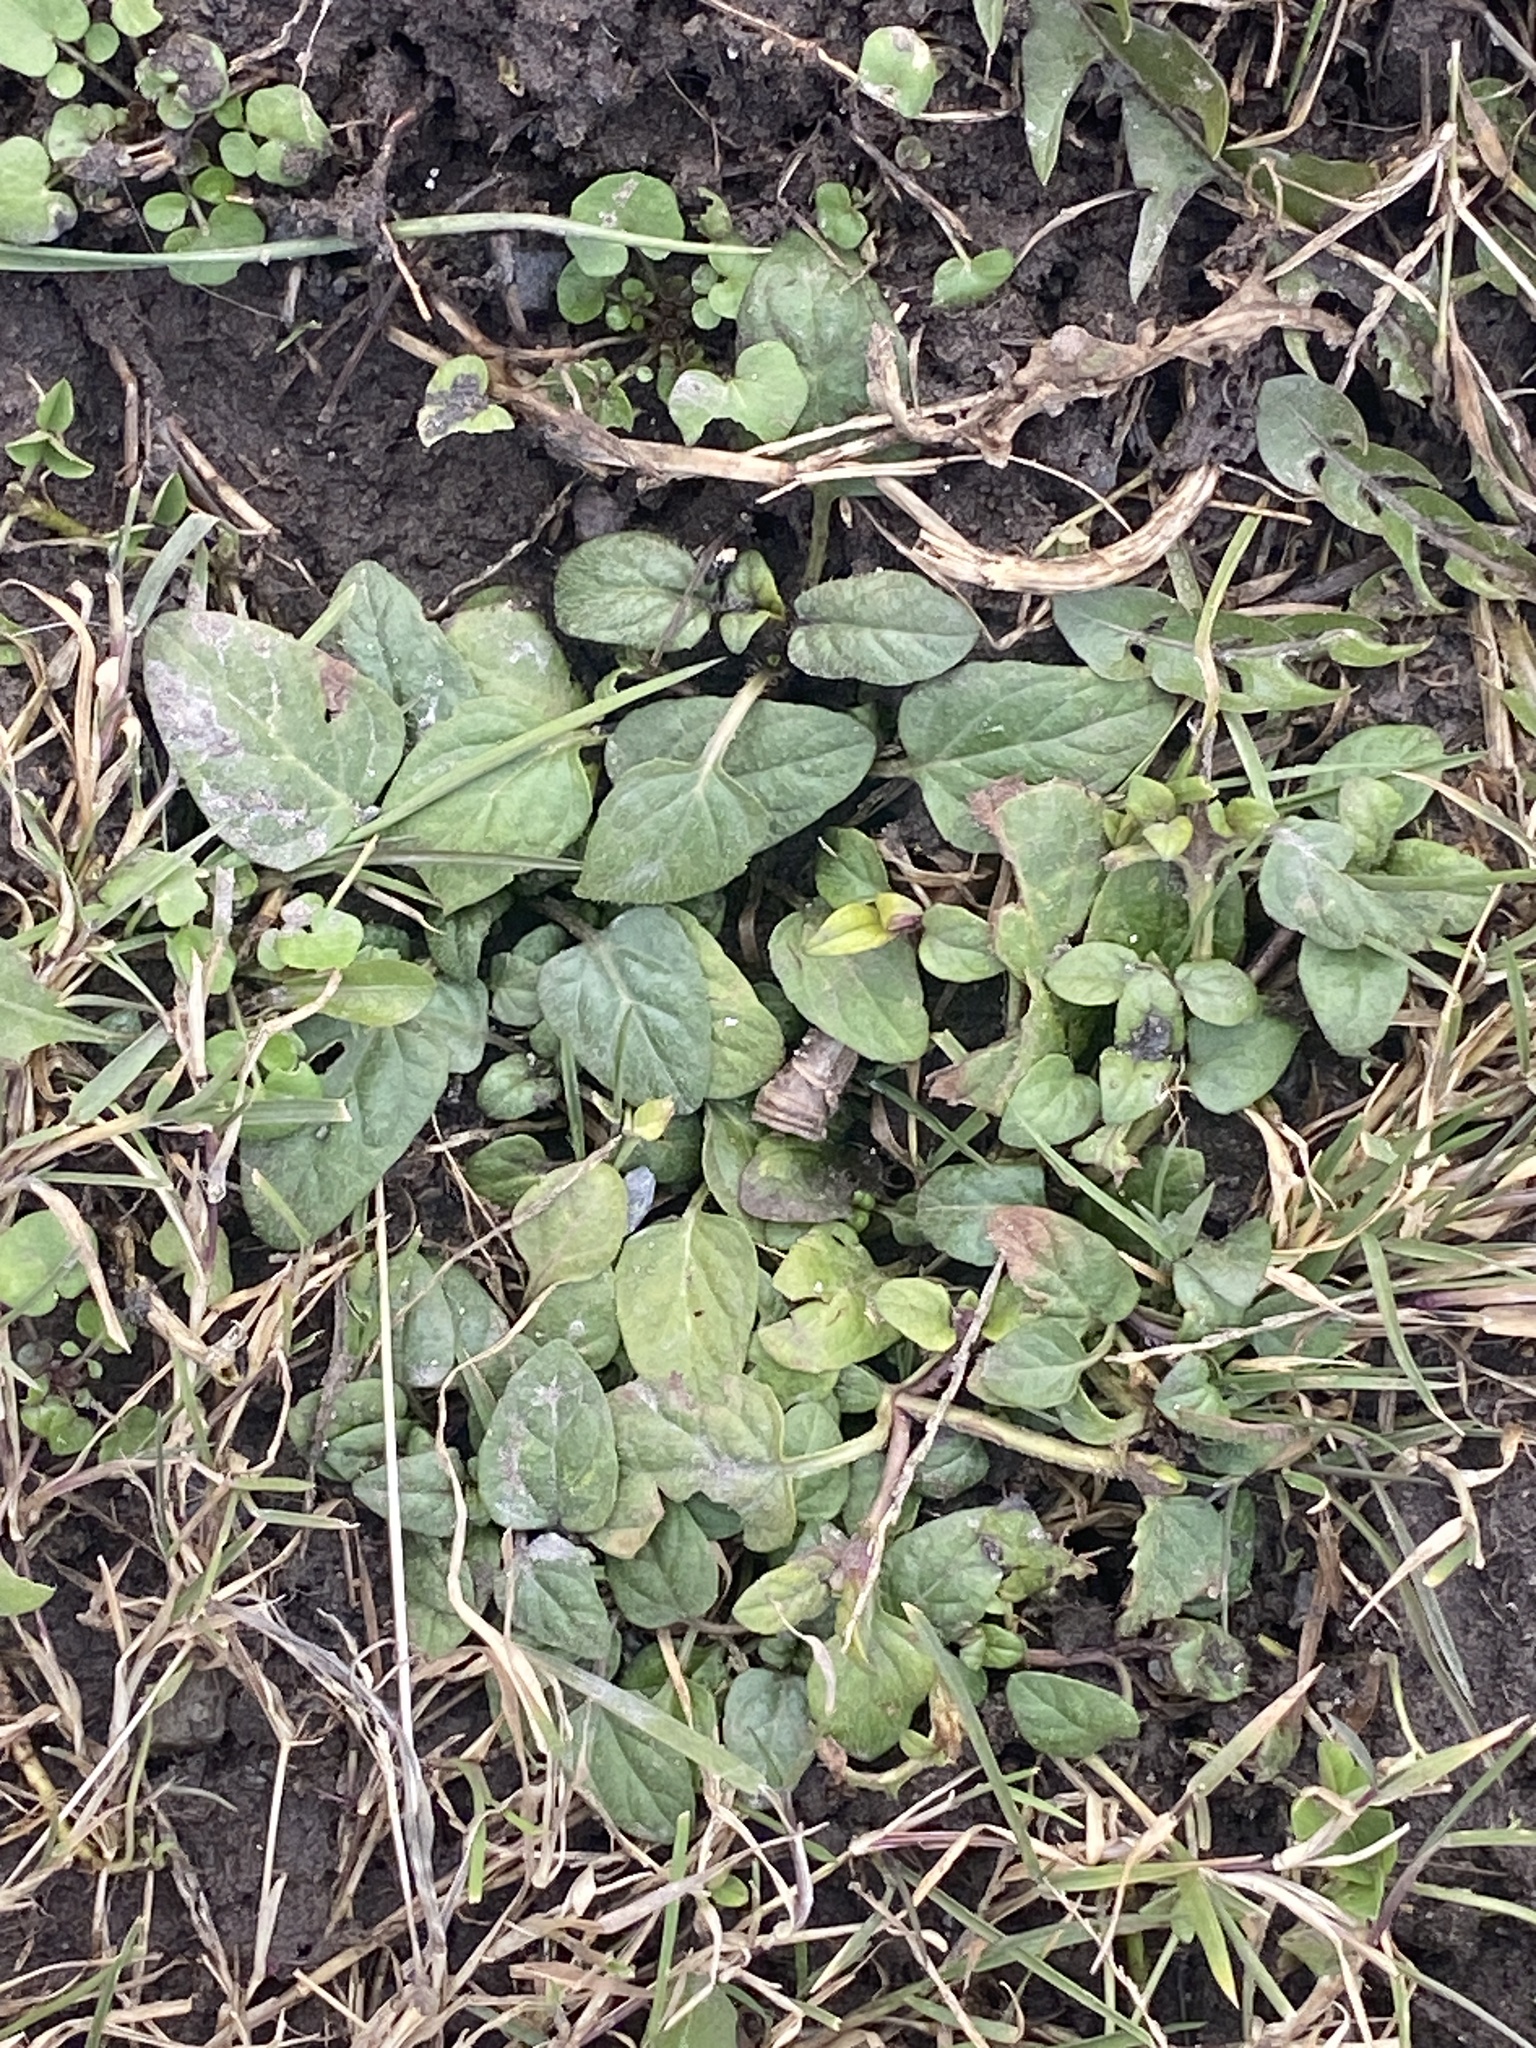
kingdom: Plantae
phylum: Tracheophyta
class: Magnoliopsida
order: Lamiales
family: Lamiaceae
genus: Prunella
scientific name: Prunella vulgaris
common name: Heal-all
